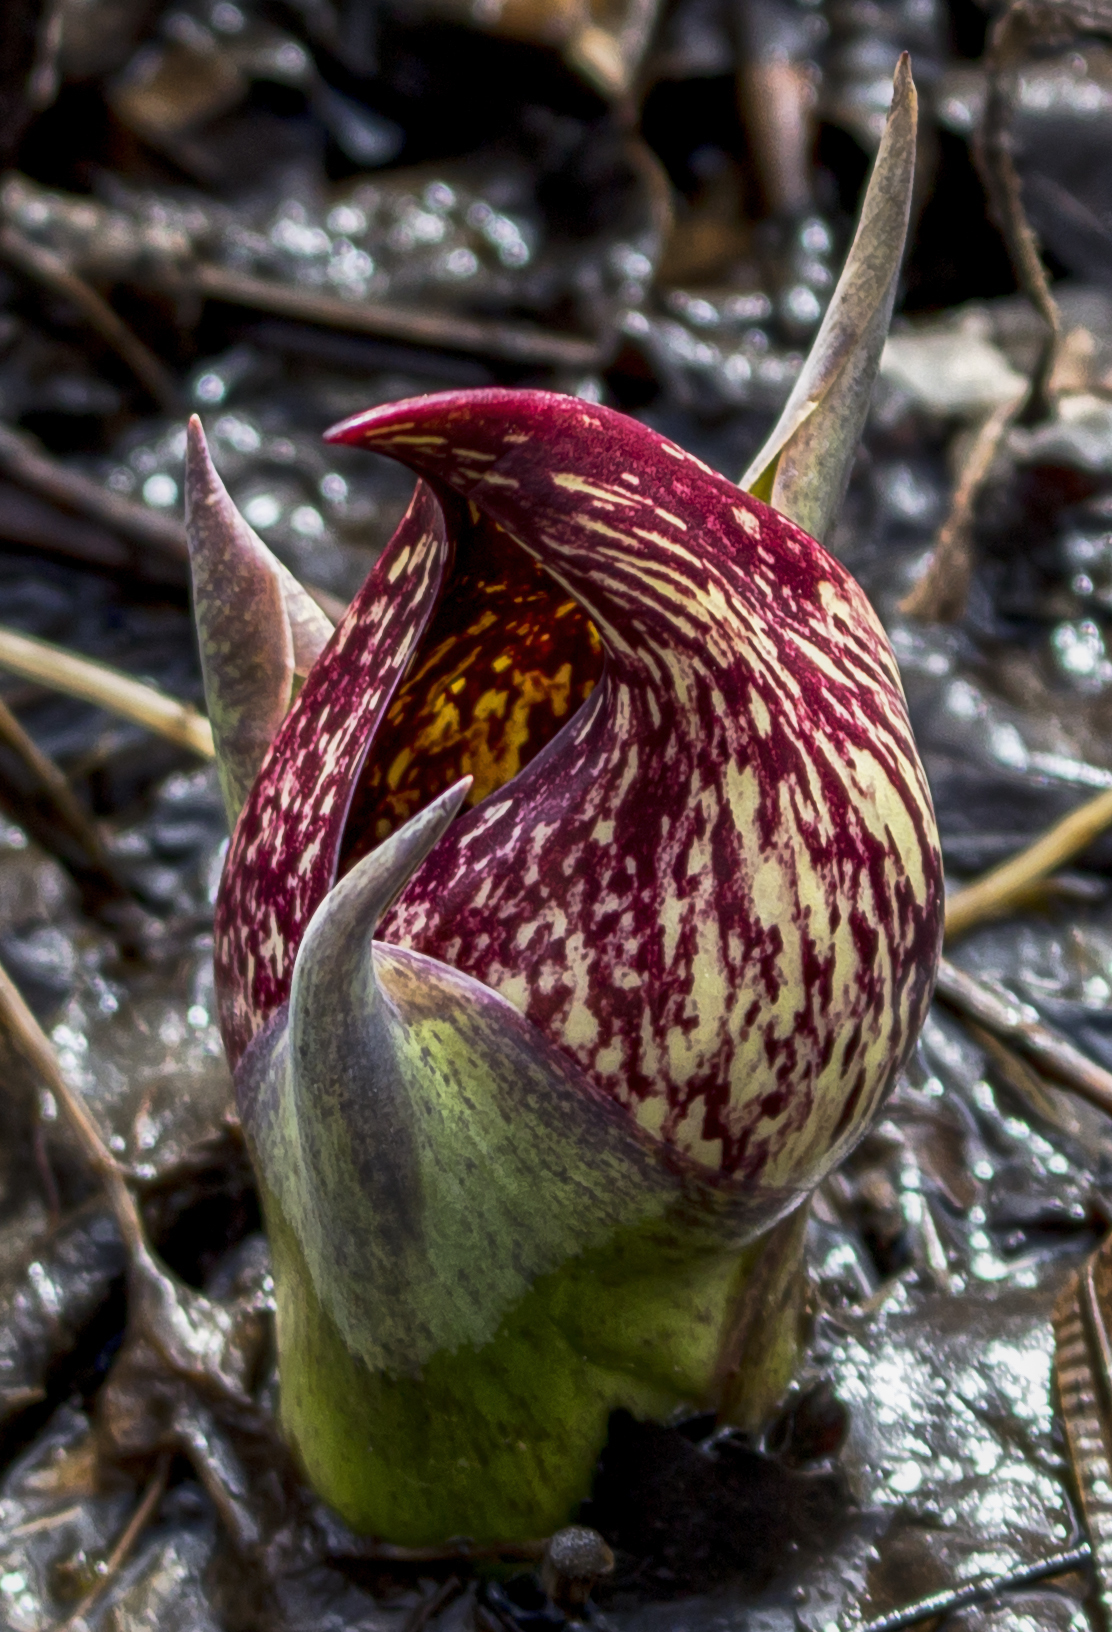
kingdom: Plantae
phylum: Tracheophyta
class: Liliopsida
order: Alismatales
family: Araceae
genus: Symplocarpus
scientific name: Symplocarpus foetidus
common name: Eastern skunk cabbage
